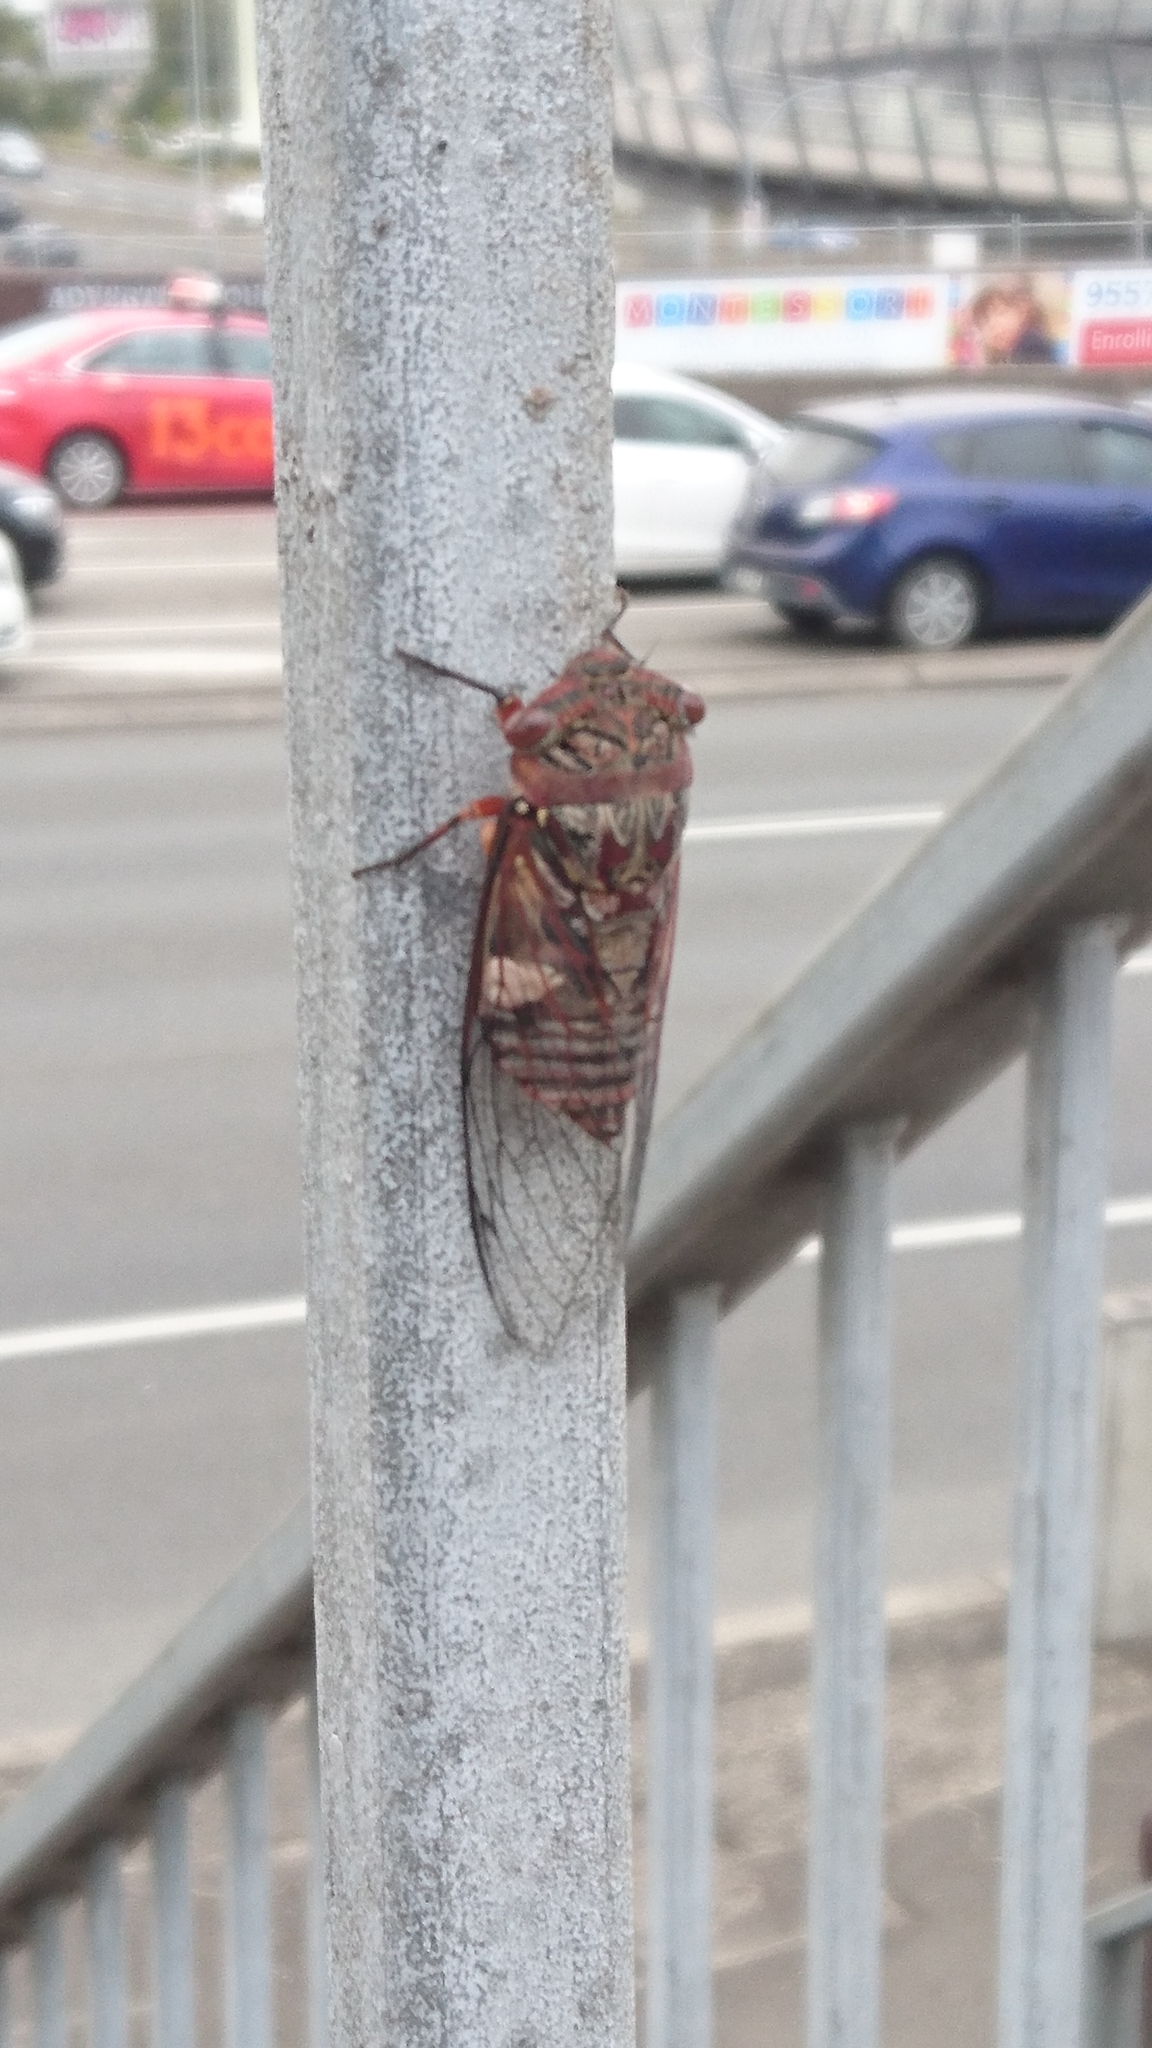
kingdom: Animalia
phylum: Arthropoda
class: Insecta
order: Hemiptera
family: Cicadidae
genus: Psaltoda
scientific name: Psaltoda plaga
